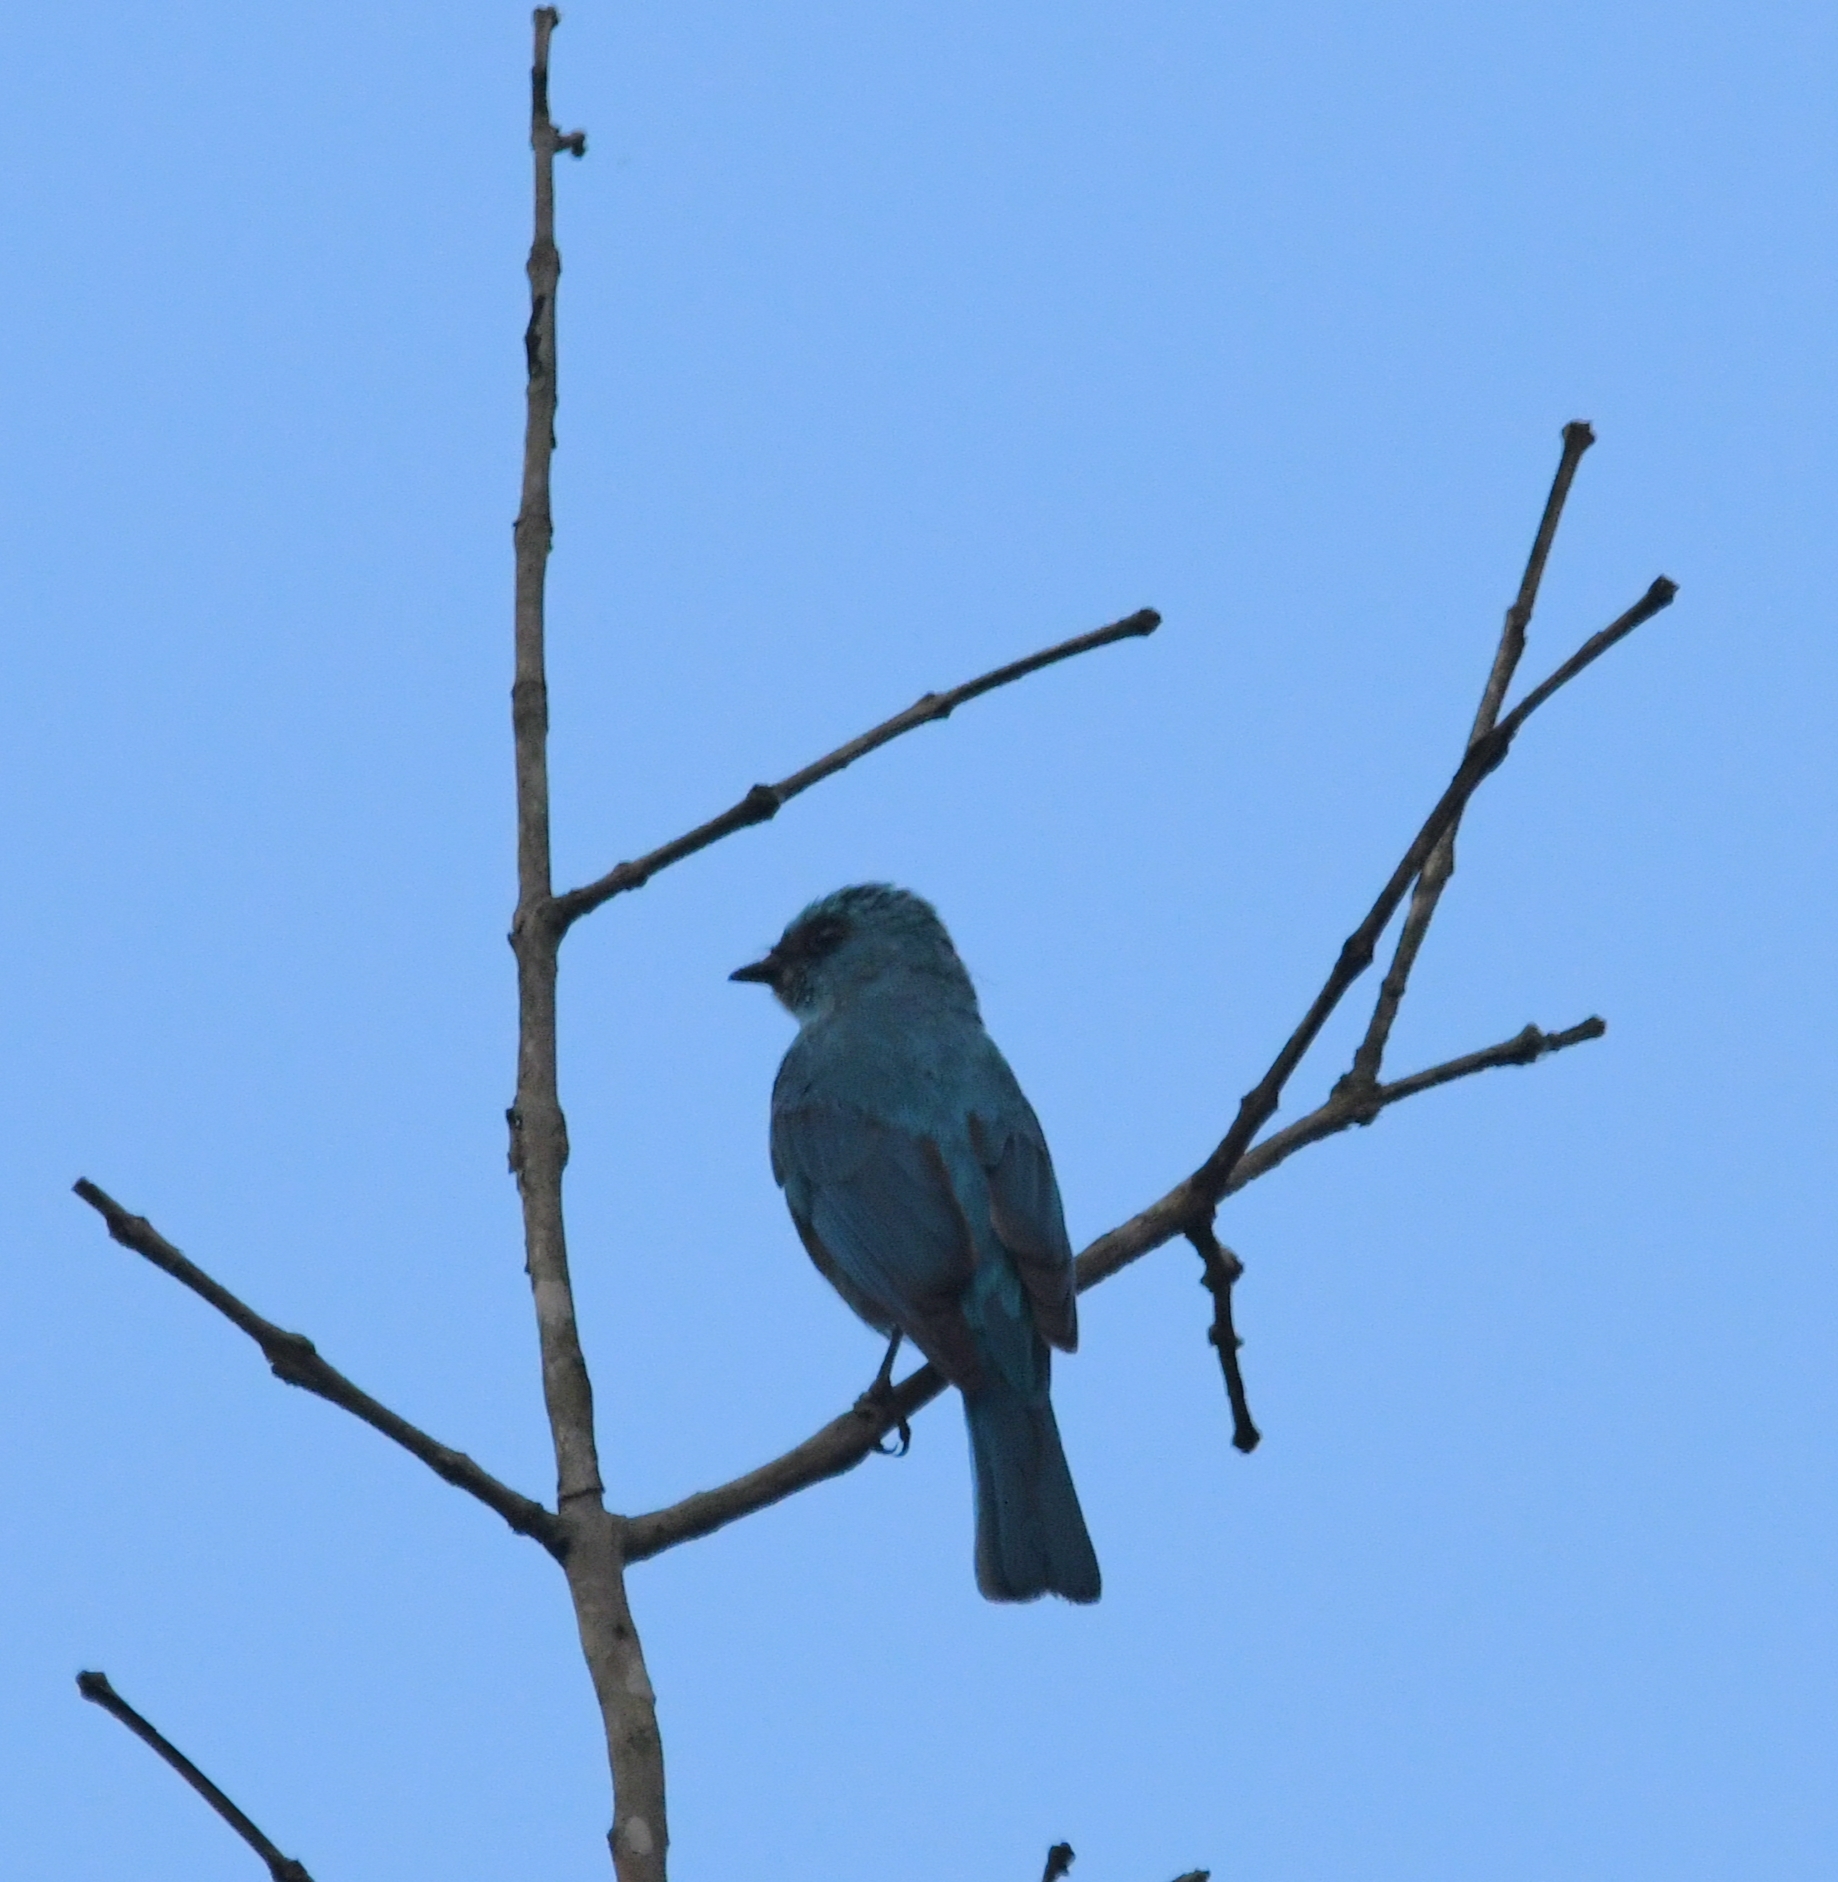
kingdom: Animalia
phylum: Chordata
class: Aves
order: Passeriformes
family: Muscicapidae
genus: Eumyias
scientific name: Eumyias thalassinus
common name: Verditer flycatcher
